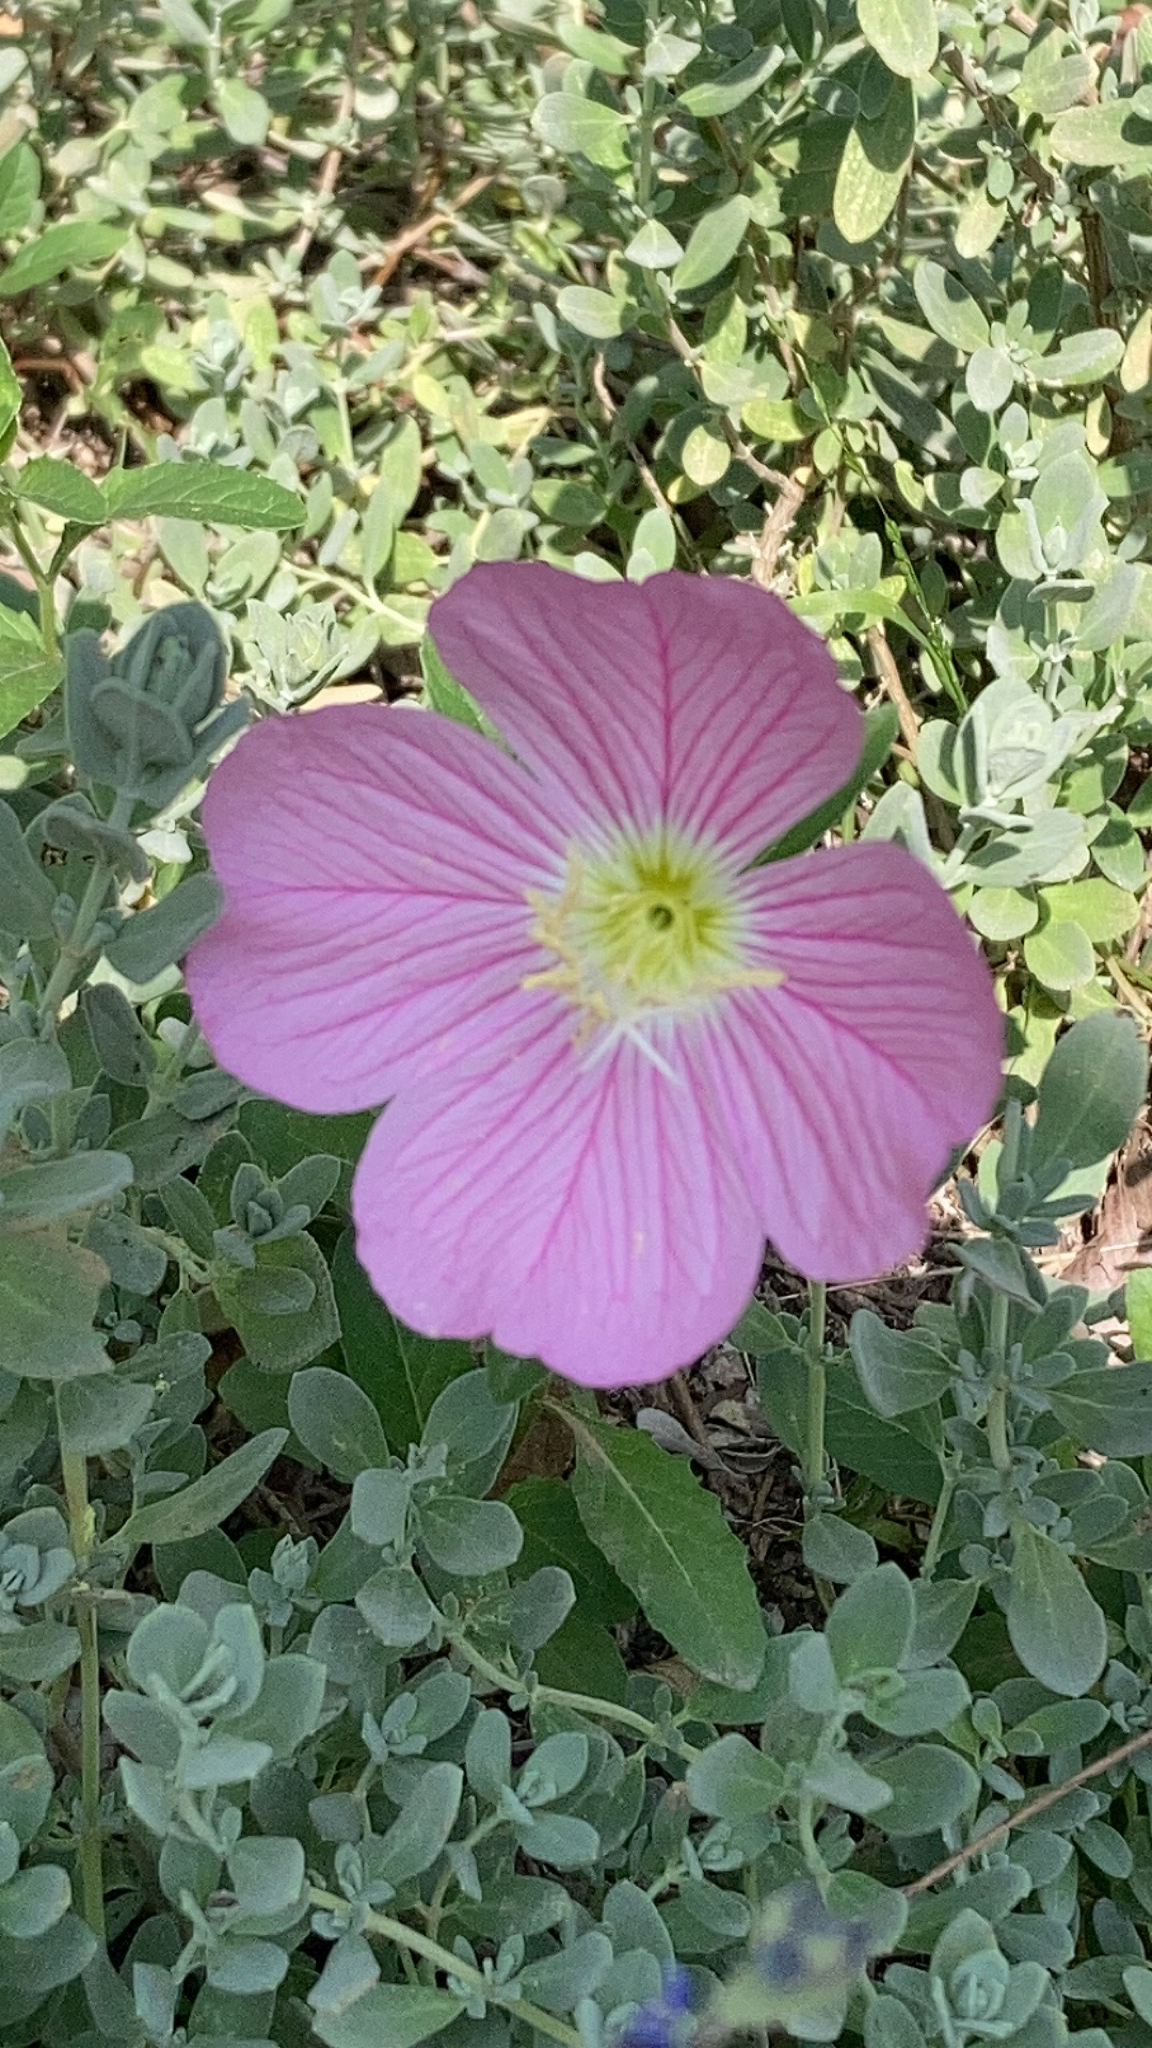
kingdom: Plantae
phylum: Tracheophyta
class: Magnoliopsida
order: Myrtales
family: Onagraceae
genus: Oenothera
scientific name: Oenothera speciosa
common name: White evening-primrose
